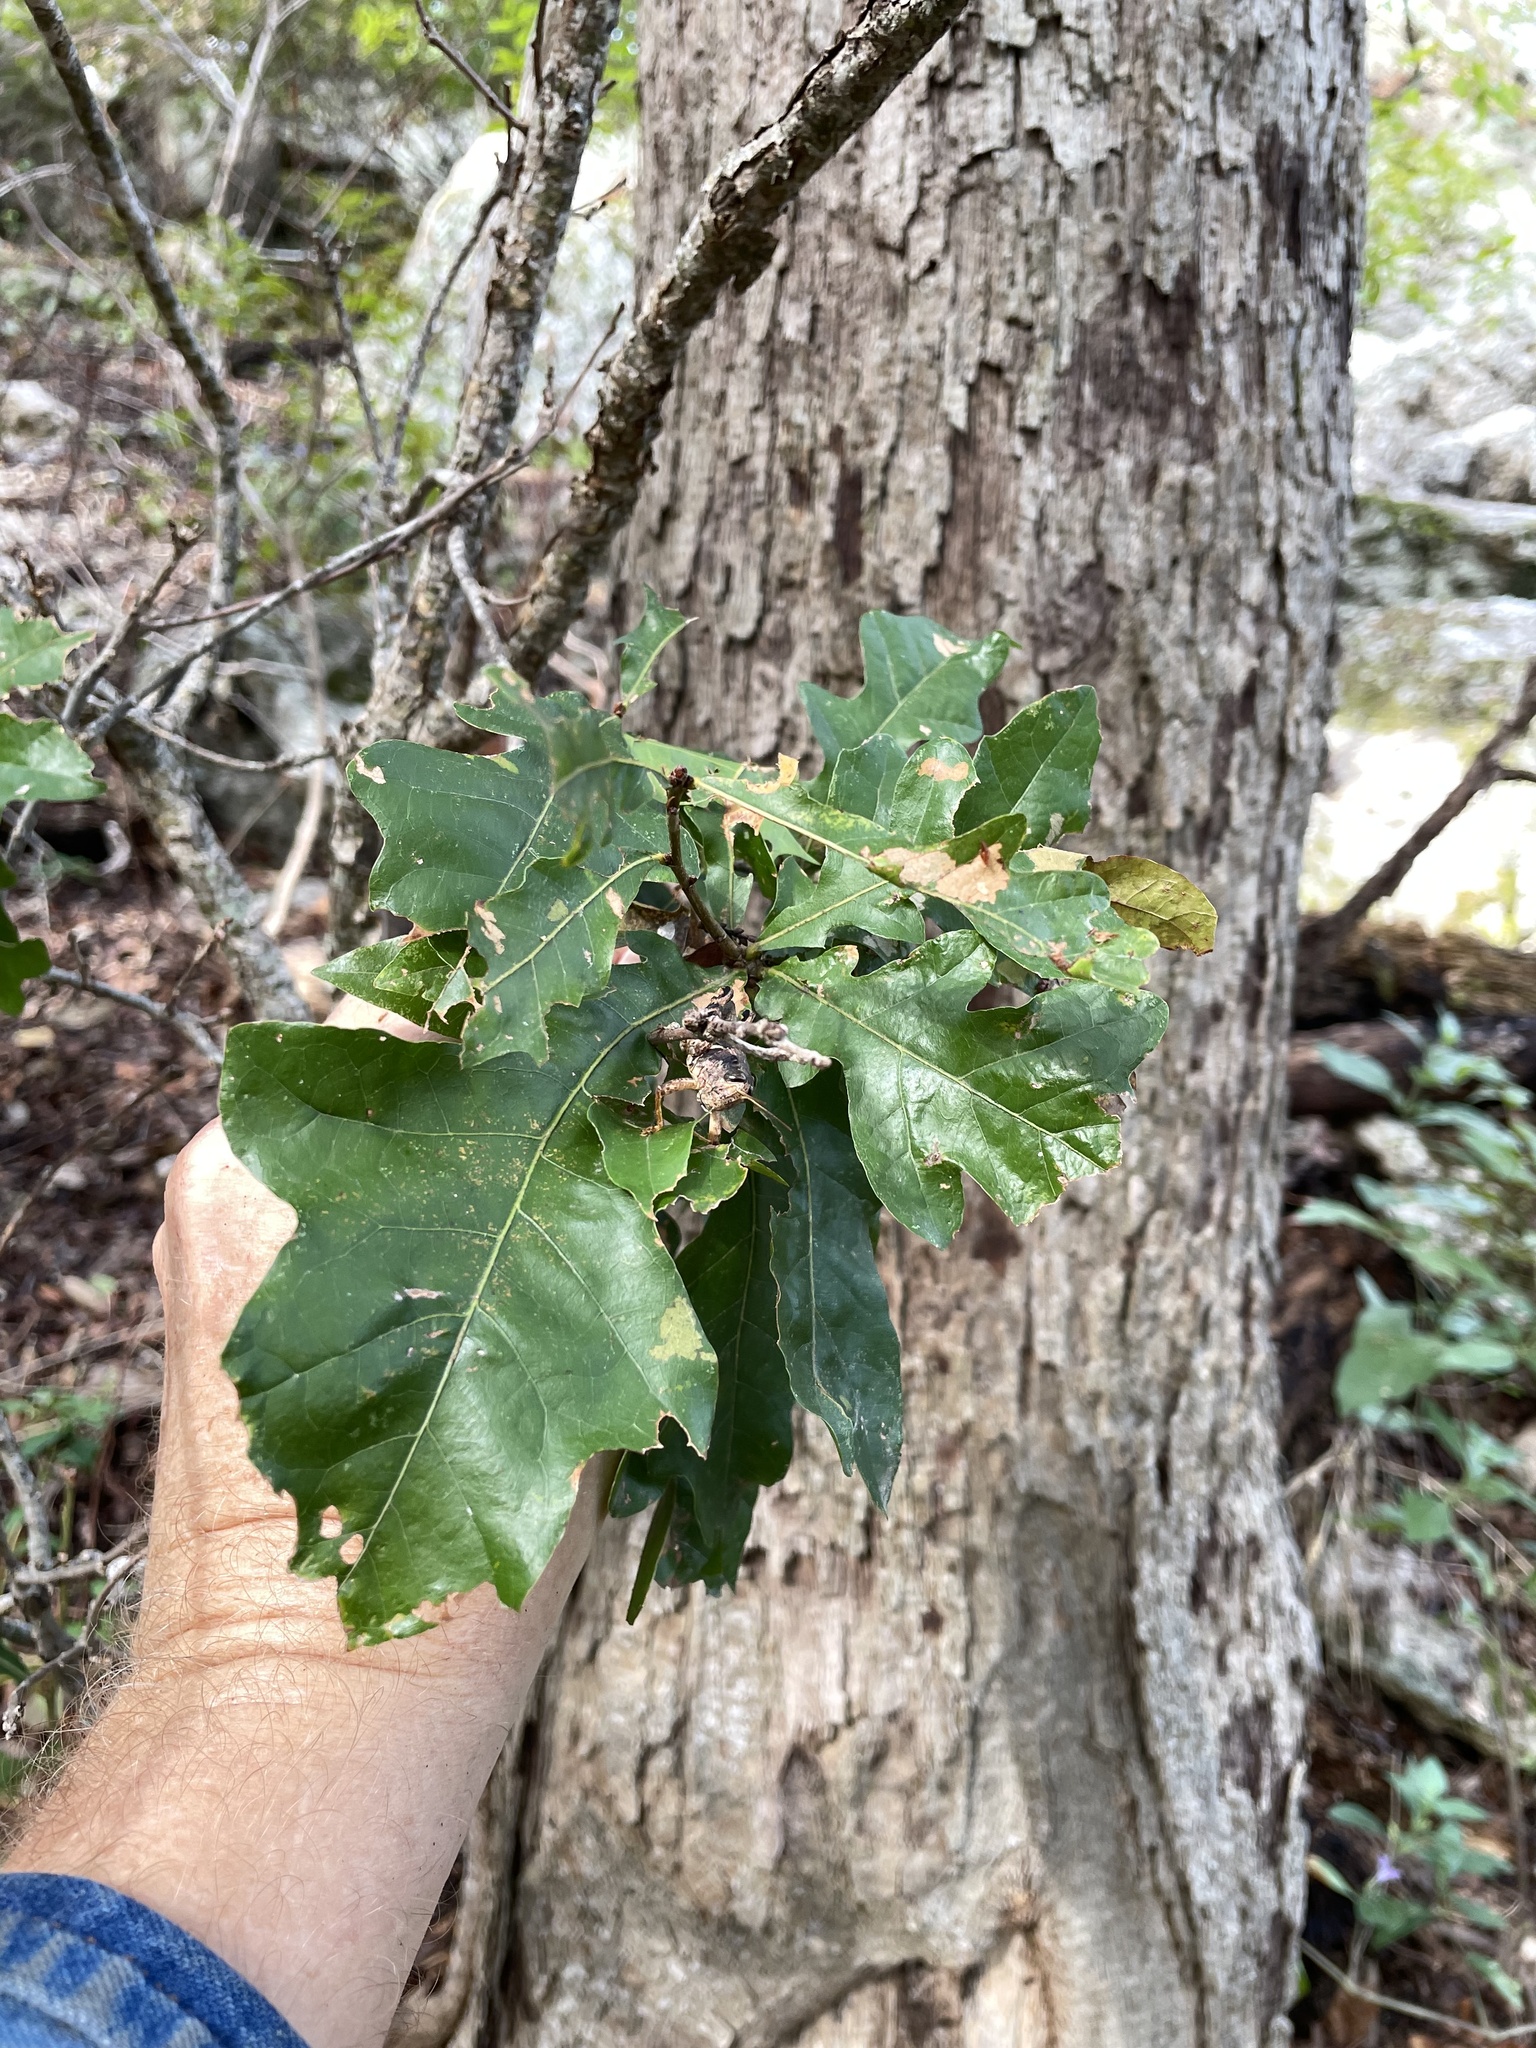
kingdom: Plantae
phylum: Tracheophyta
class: Magnoliopsida
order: Fagales
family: Fagaceae
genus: Quercus
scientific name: Quercus sinuata
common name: Durand oak
